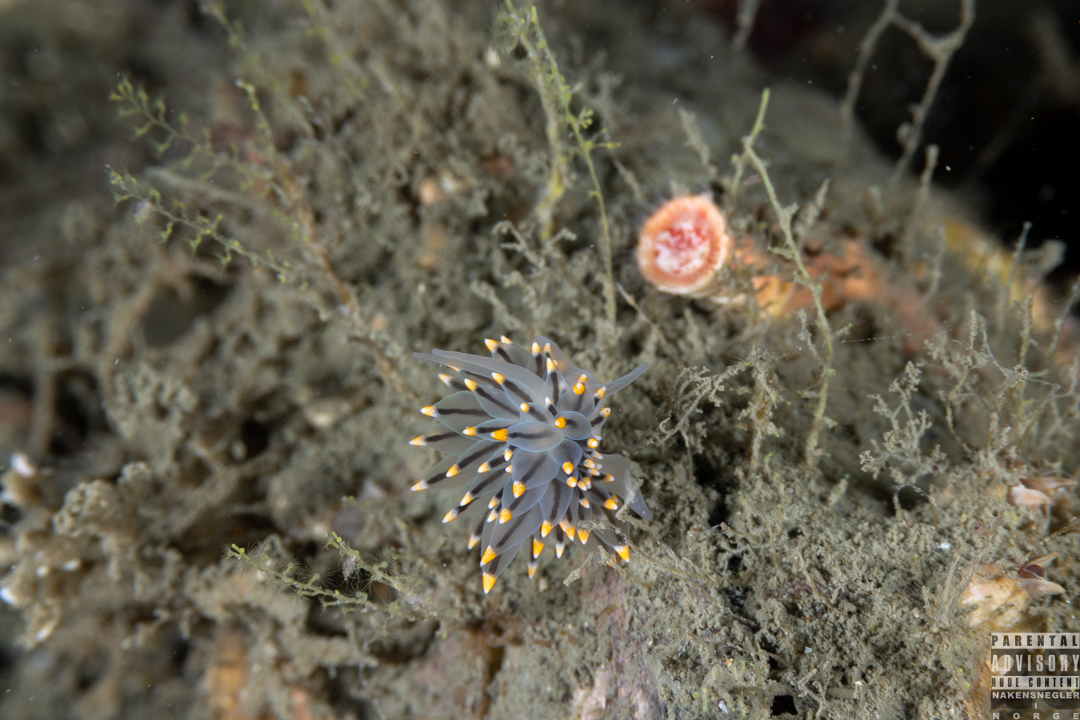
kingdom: Animalia
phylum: Mollusca
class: Gastropoda
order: Nudibranchia
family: Eubranchidae
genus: Eubranchus
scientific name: Eubranchus tricolor
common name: Painted balloon aeolis
